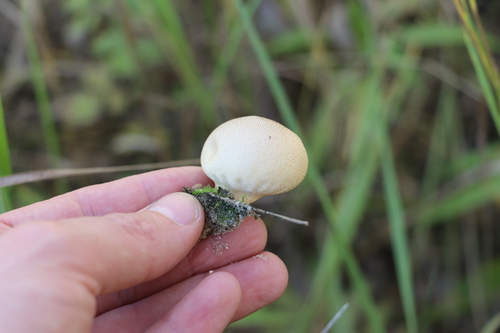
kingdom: Fungi
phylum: Basidiomycota
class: Agaricomycetes
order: Agaricales
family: Lycoperdaceae
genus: Bovista
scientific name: Bovista
